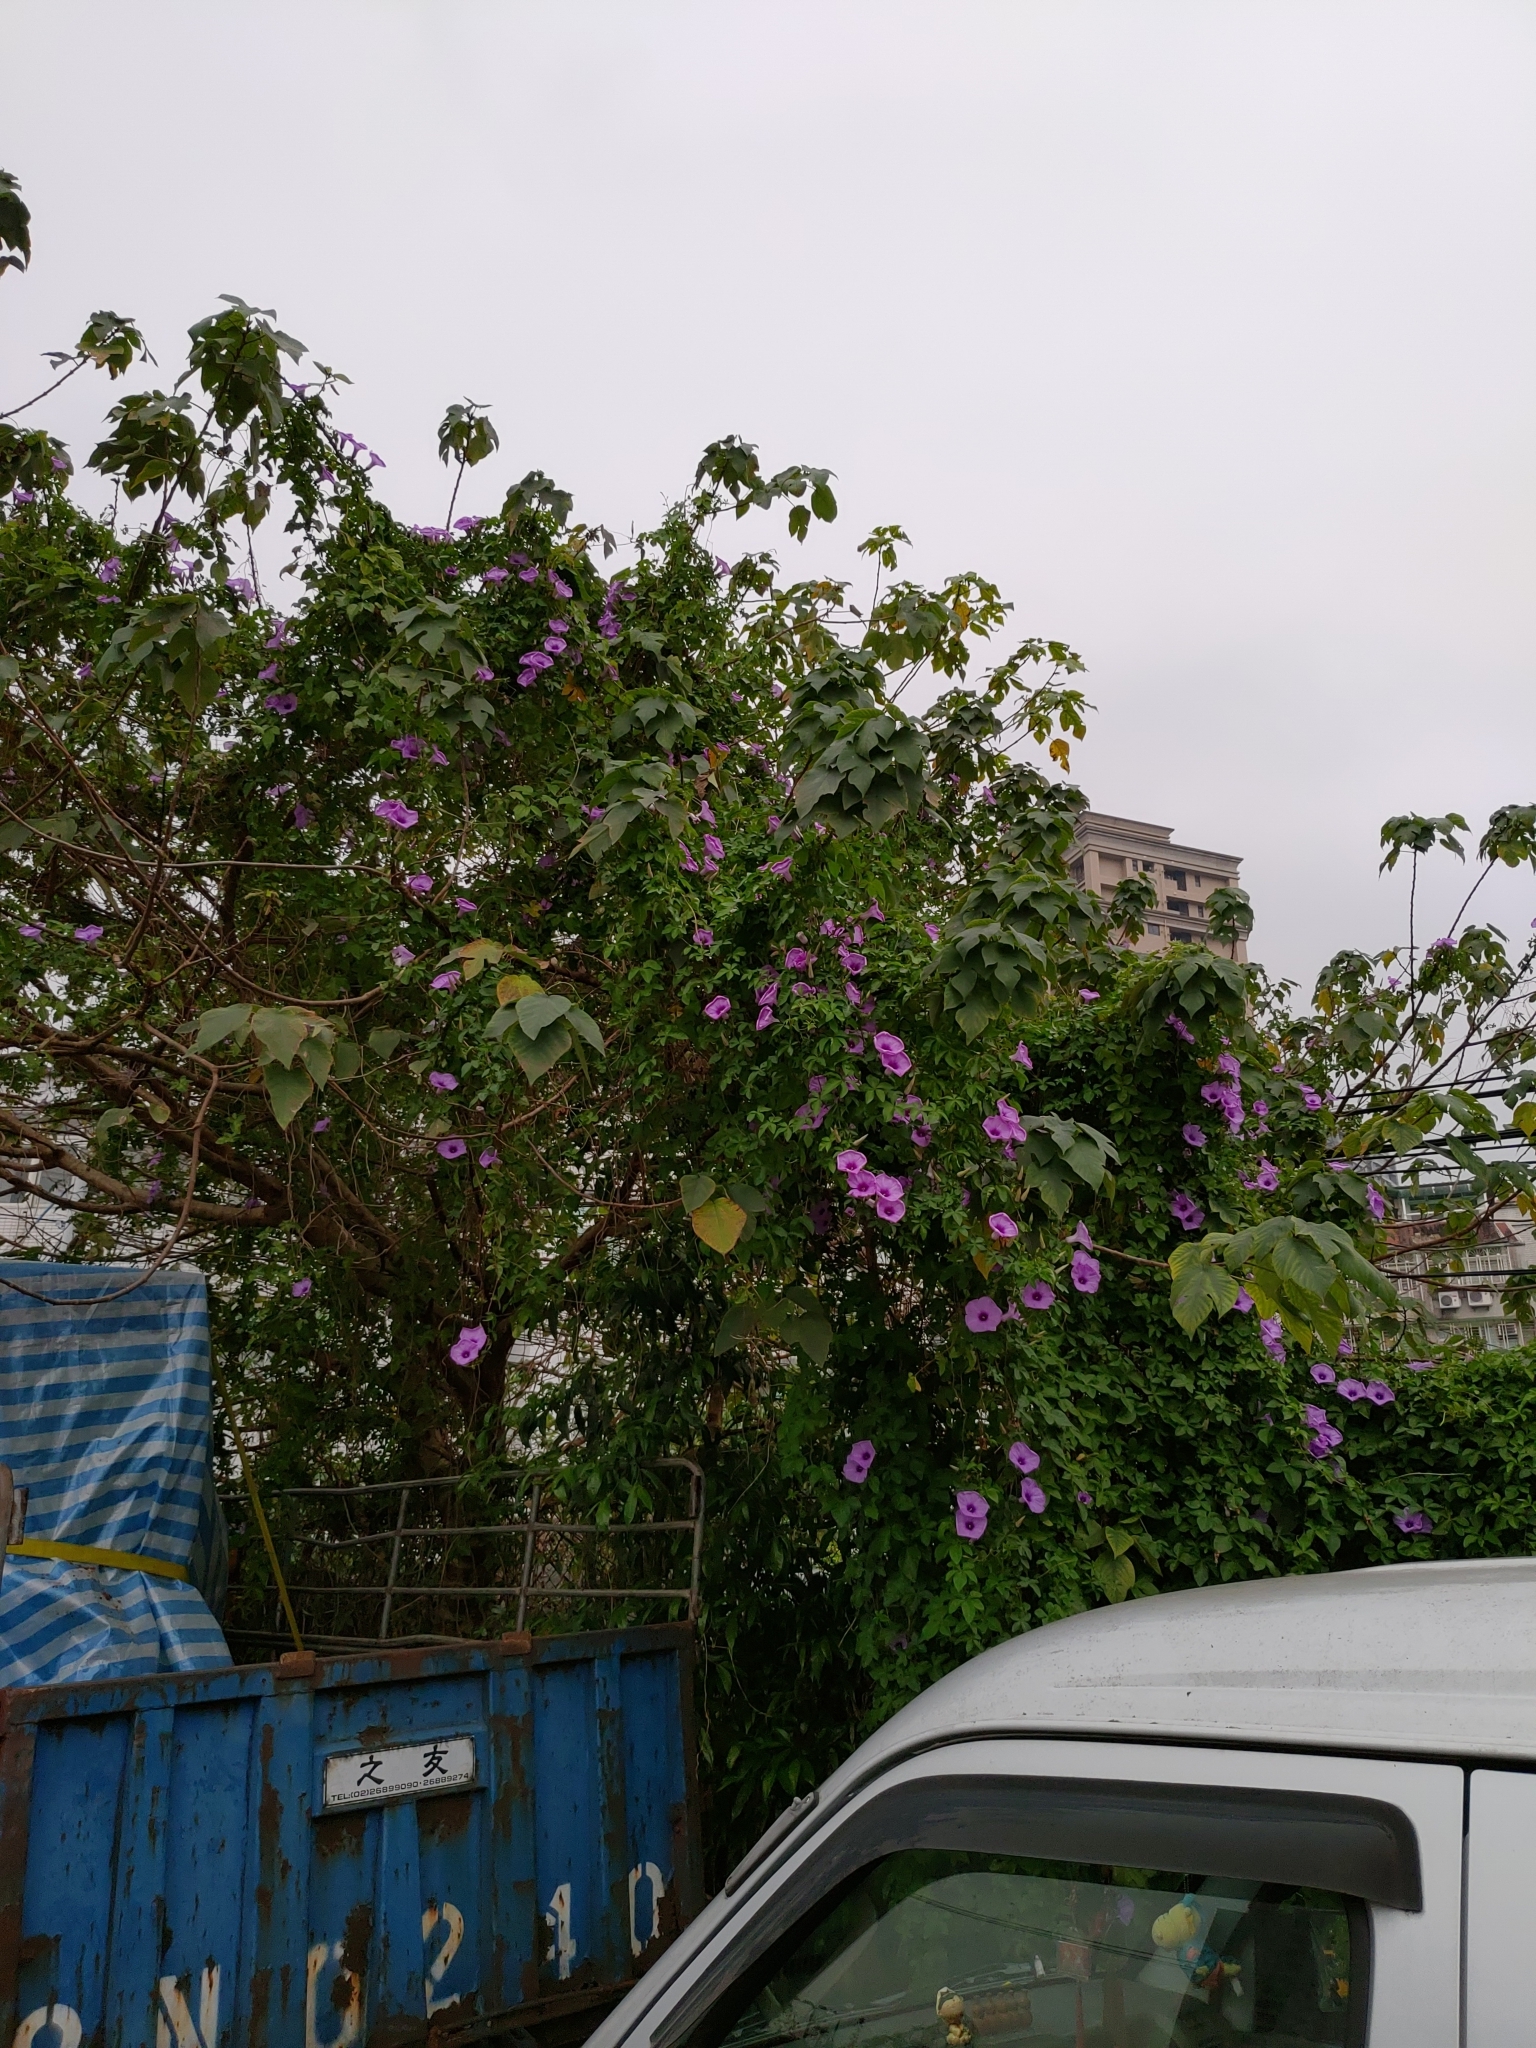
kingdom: Plantae
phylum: Tracheophyta
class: Magnoliopsida
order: Solanales
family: Convolvulaceae
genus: Ipomoea
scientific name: Ipomoea cairica
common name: Mile a minute vine
